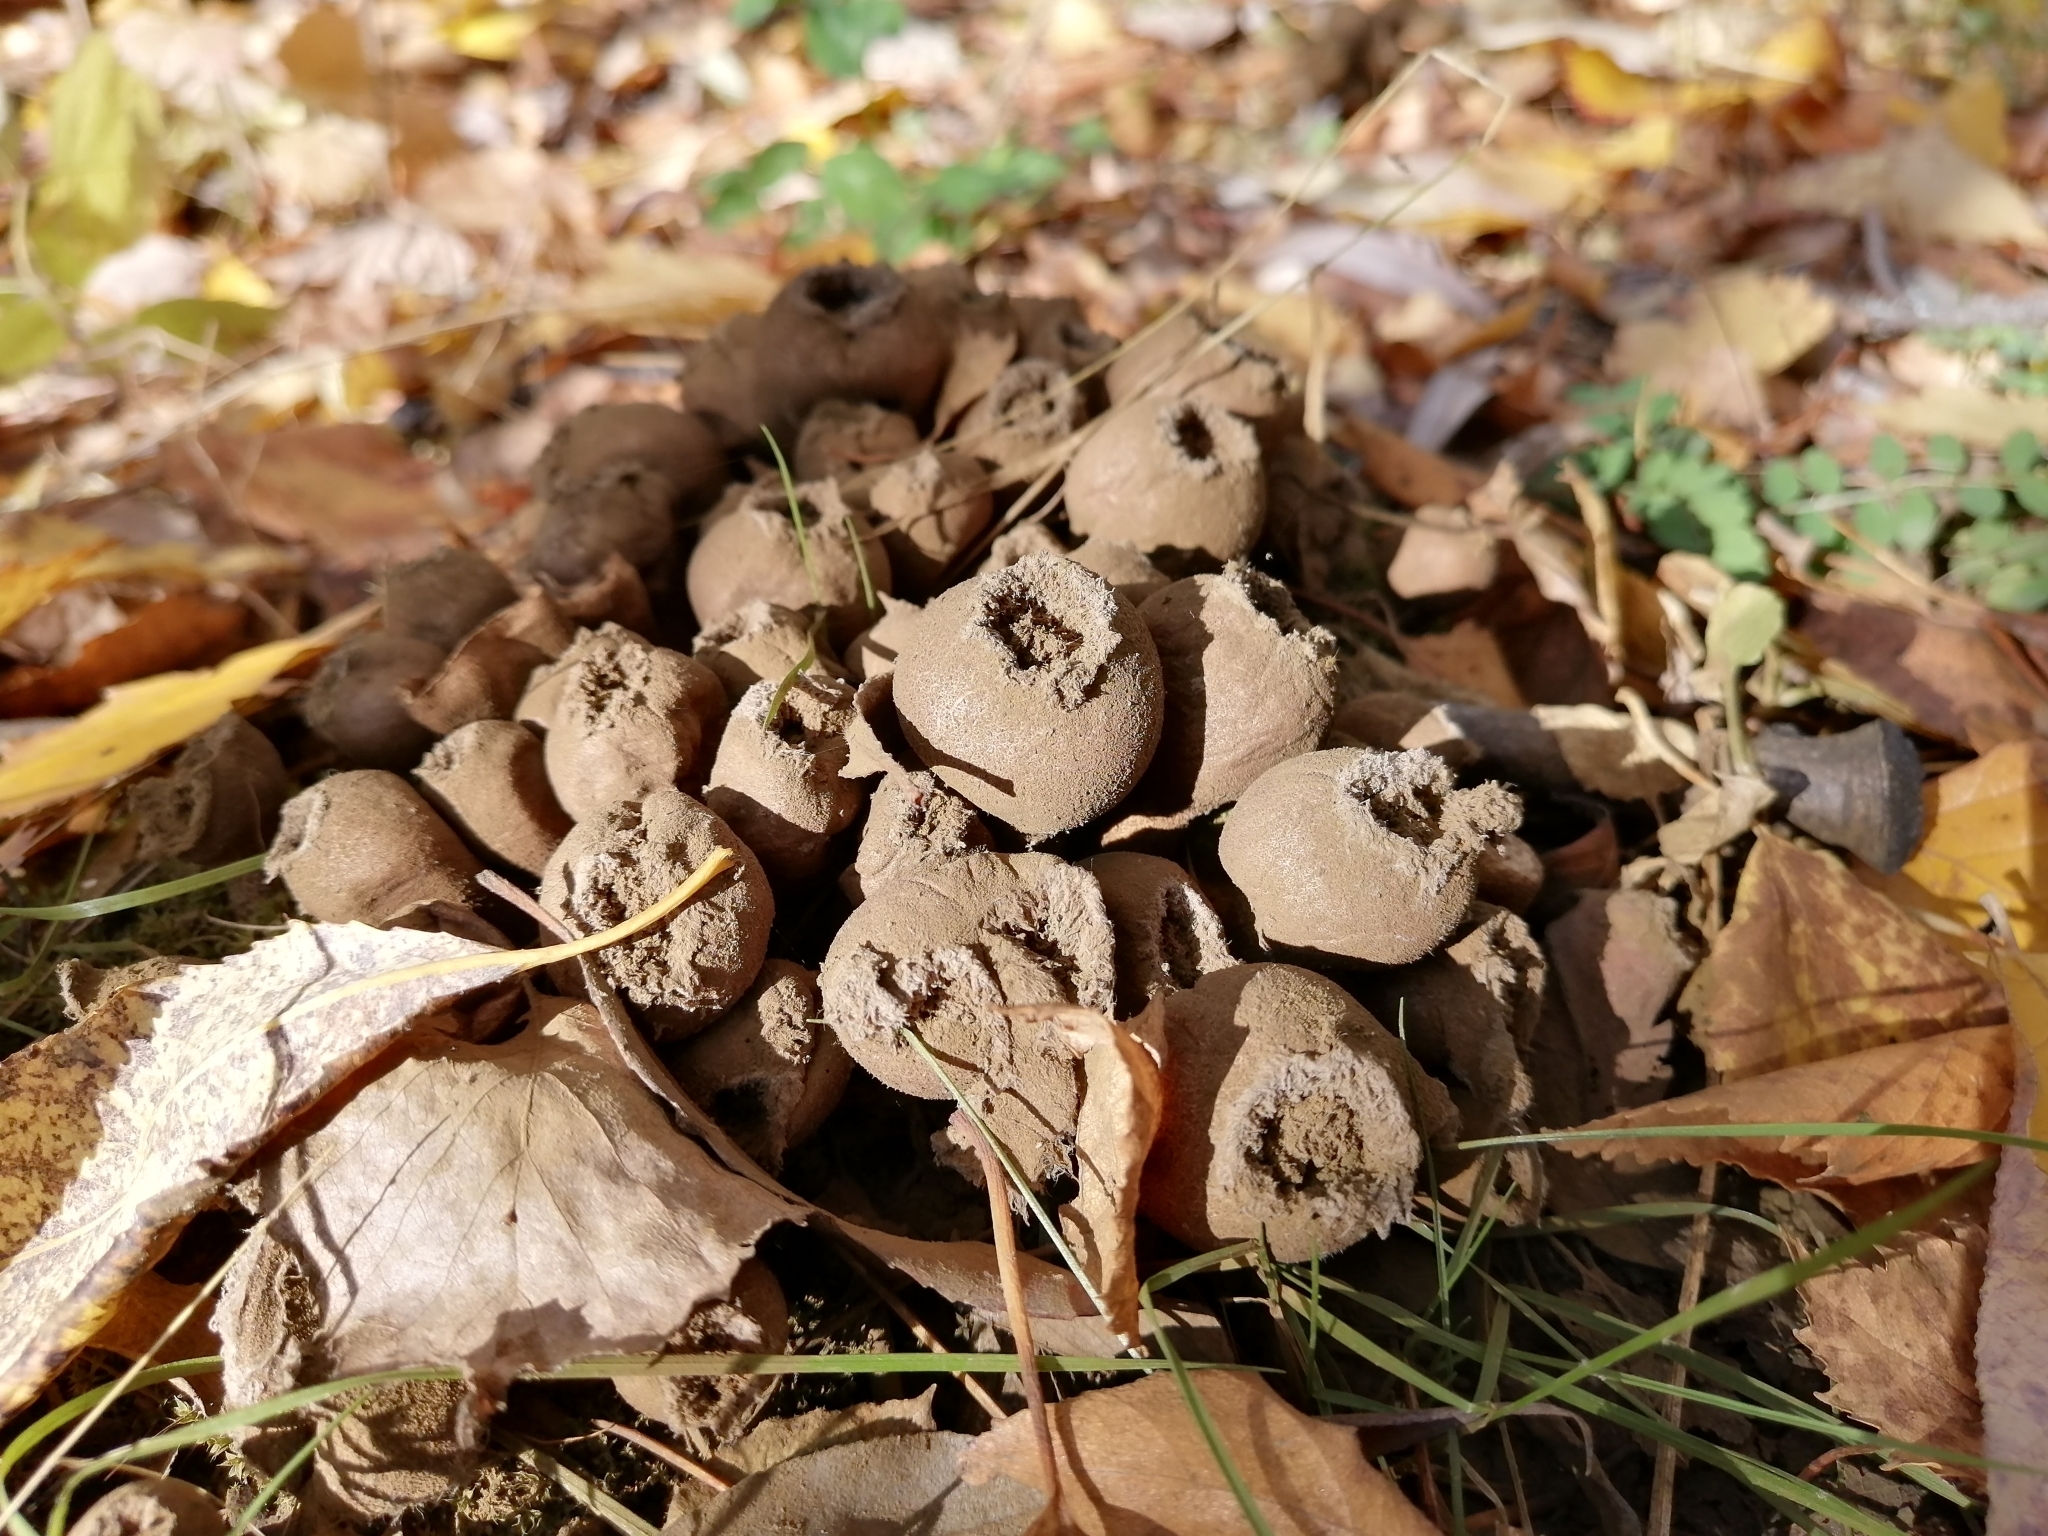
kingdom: Fungi
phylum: Basidiomycota
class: Agaricomycetes
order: Agaricales
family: Lycoperdaceae
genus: Apioperdon
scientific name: Apioperdon pyriforme
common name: Pear-shaped puffball
